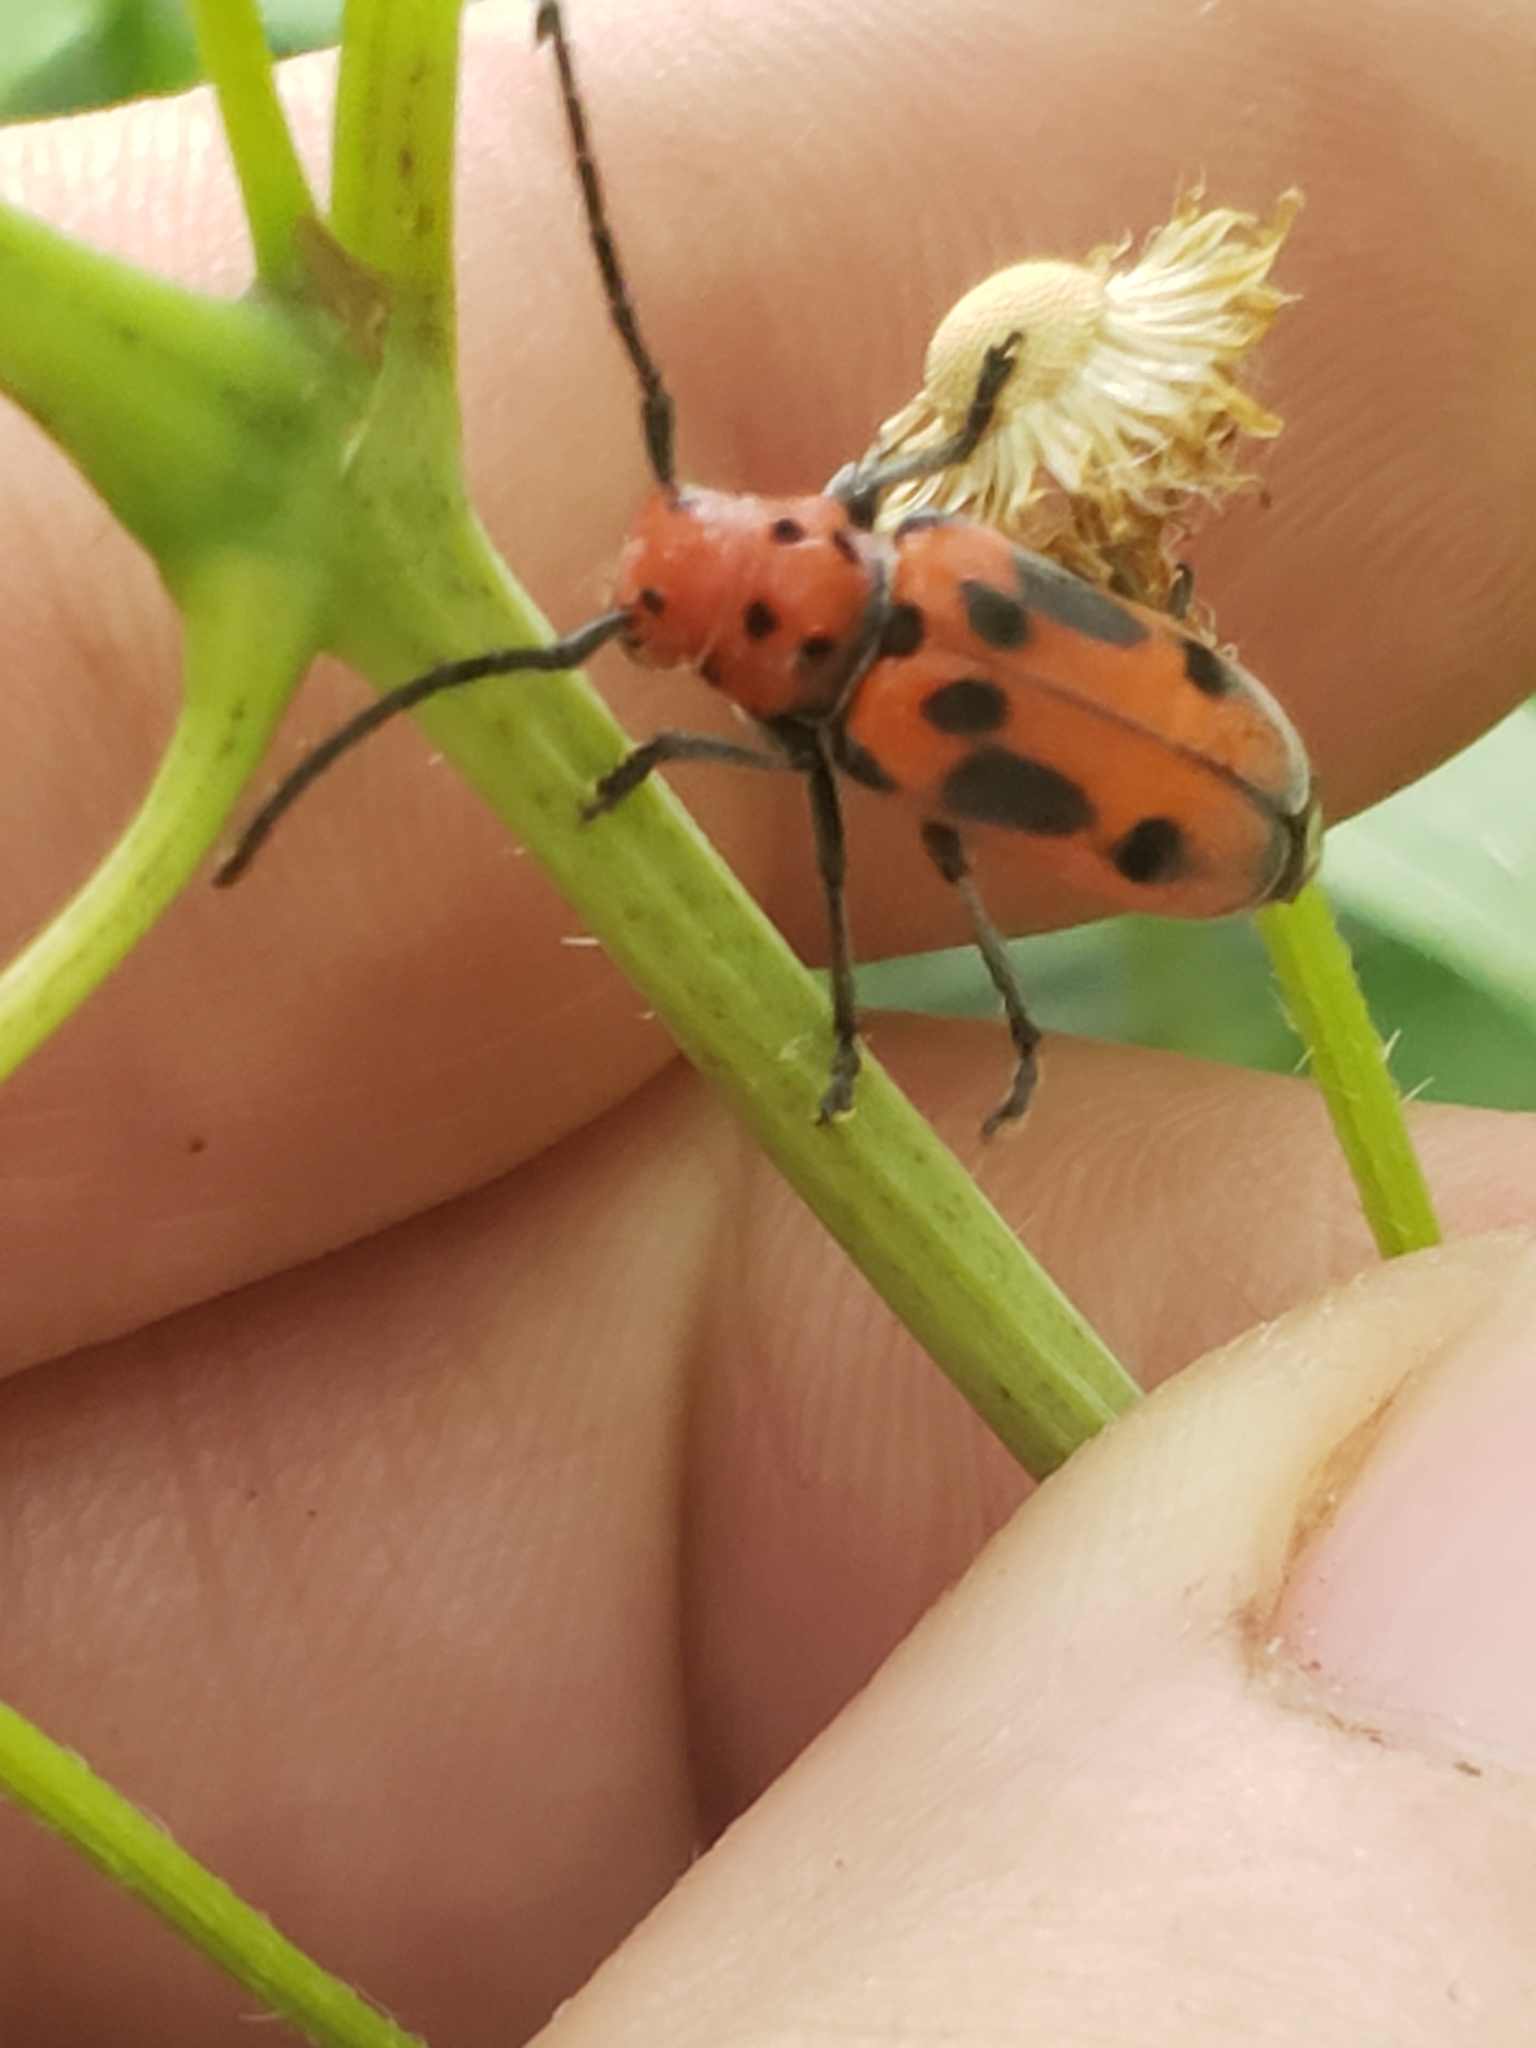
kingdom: Animalia
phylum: Arthropoda
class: Insecta
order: Coleoptera
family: Cerambycidae
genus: Tetraopes
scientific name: Tetraopes tetrophthalmus
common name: Red milkweed beetle
